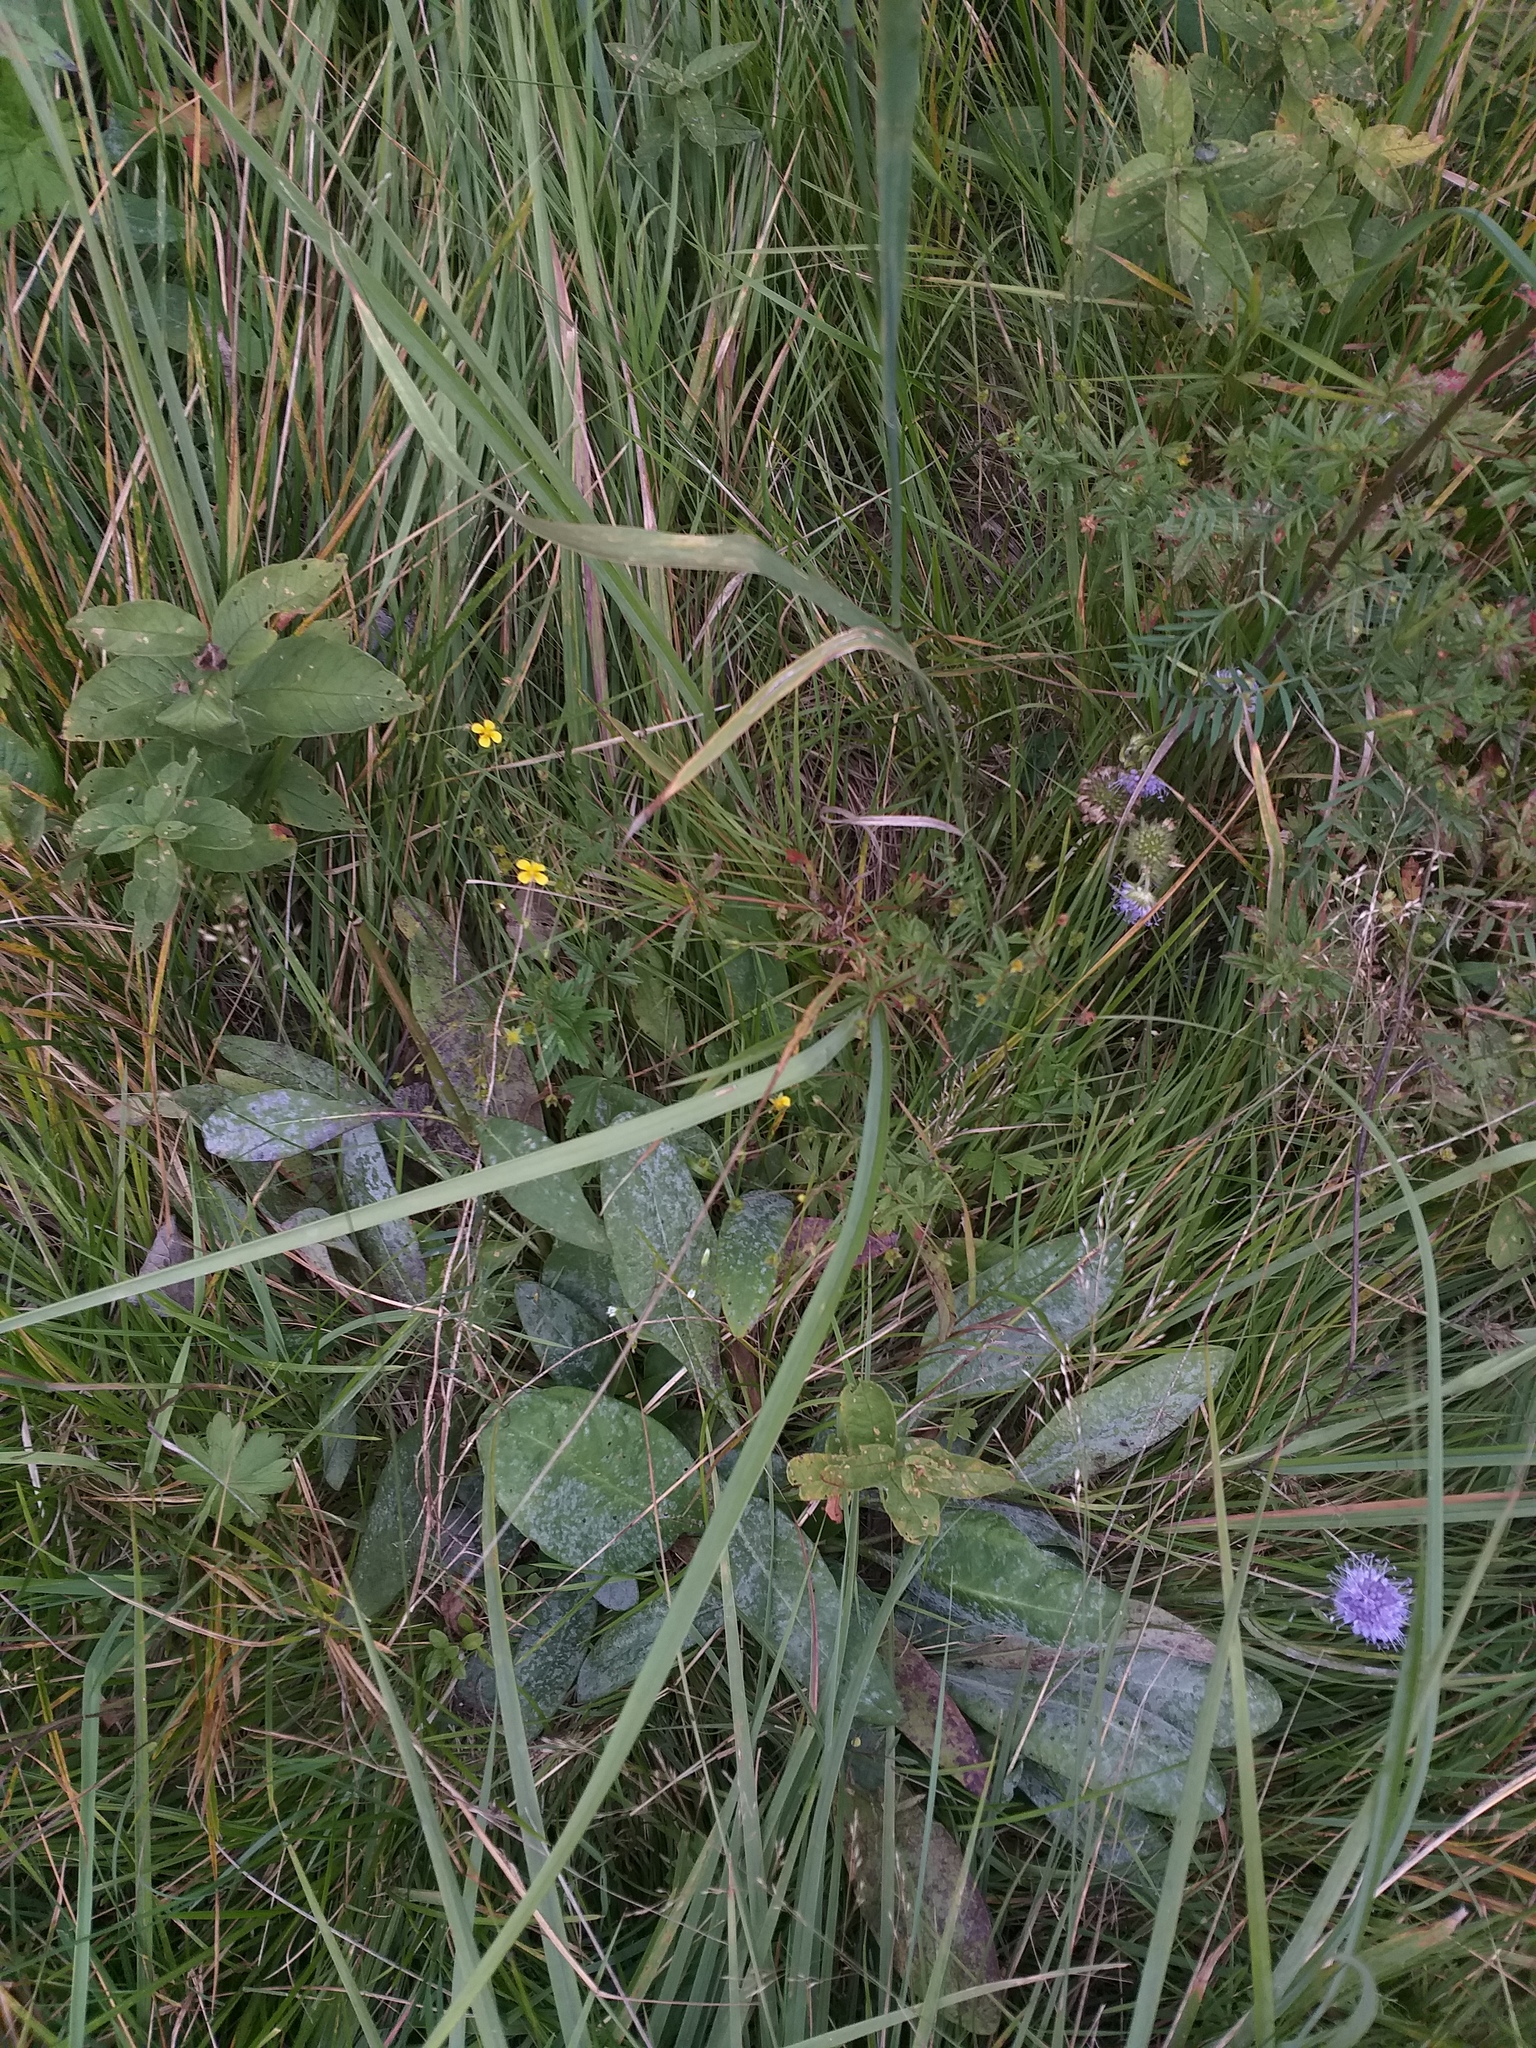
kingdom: Plantae
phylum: Tracheophyta
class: Magnoliopsida
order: Rosales
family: Rosaceae
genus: Potentilla
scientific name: Potentilla erecta
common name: Tormentil
